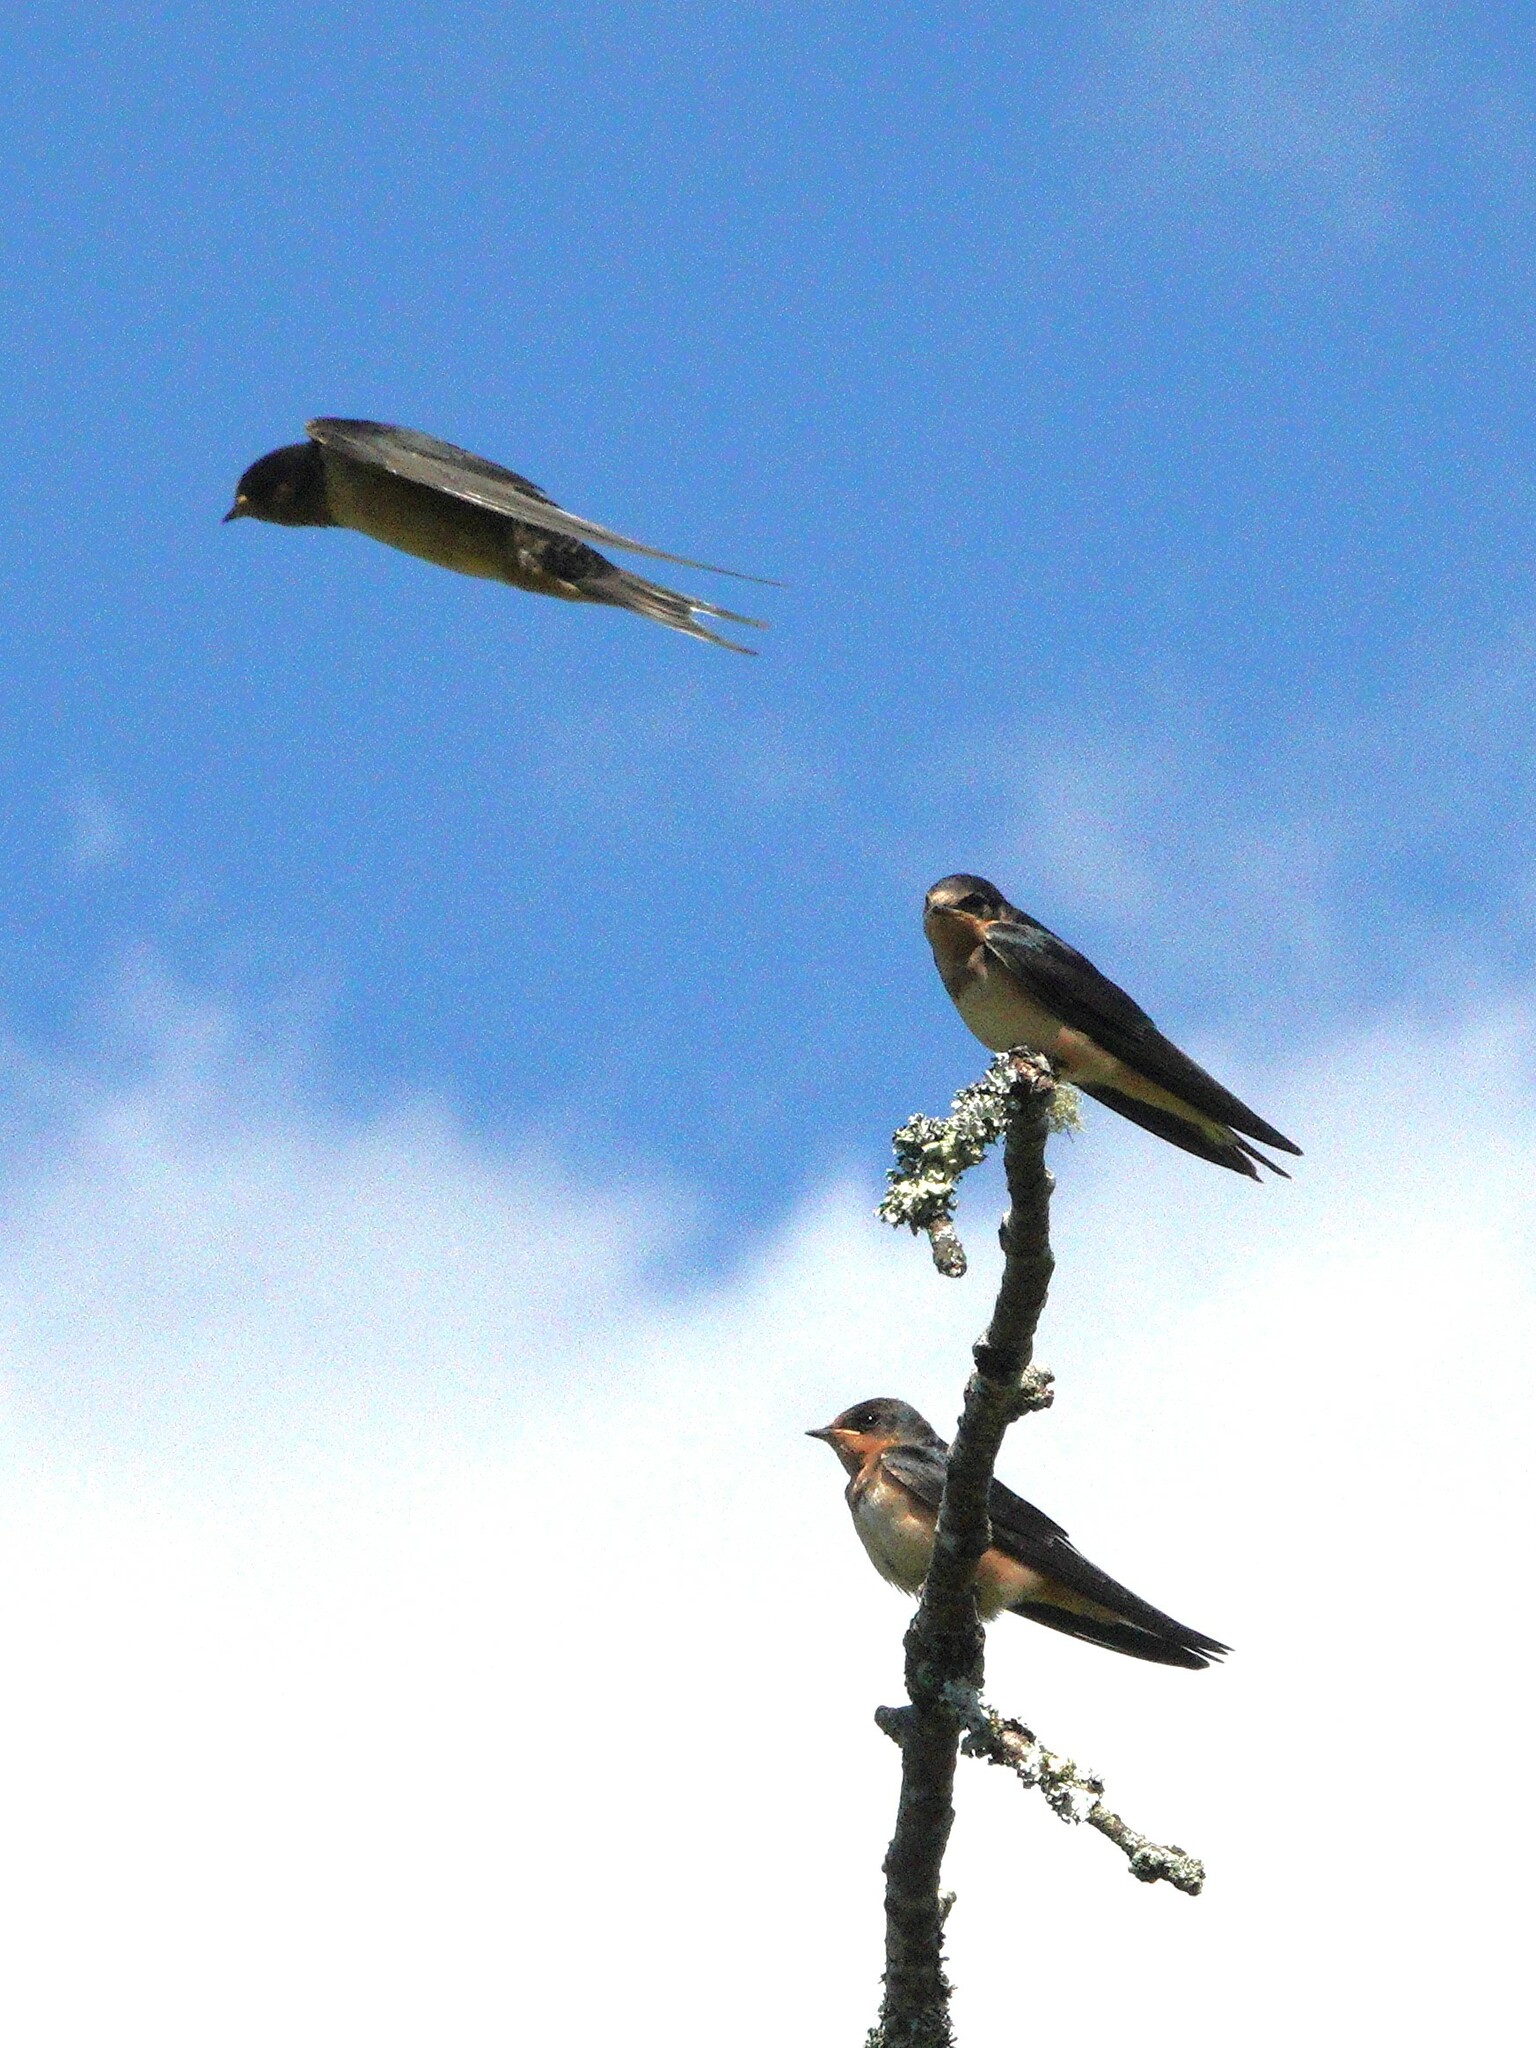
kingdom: Animalia
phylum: Chordata
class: Aves
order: Passeriformes
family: Hirundinidae
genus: Hirundo
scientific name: Hirundo rustica
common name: Barn swallow
